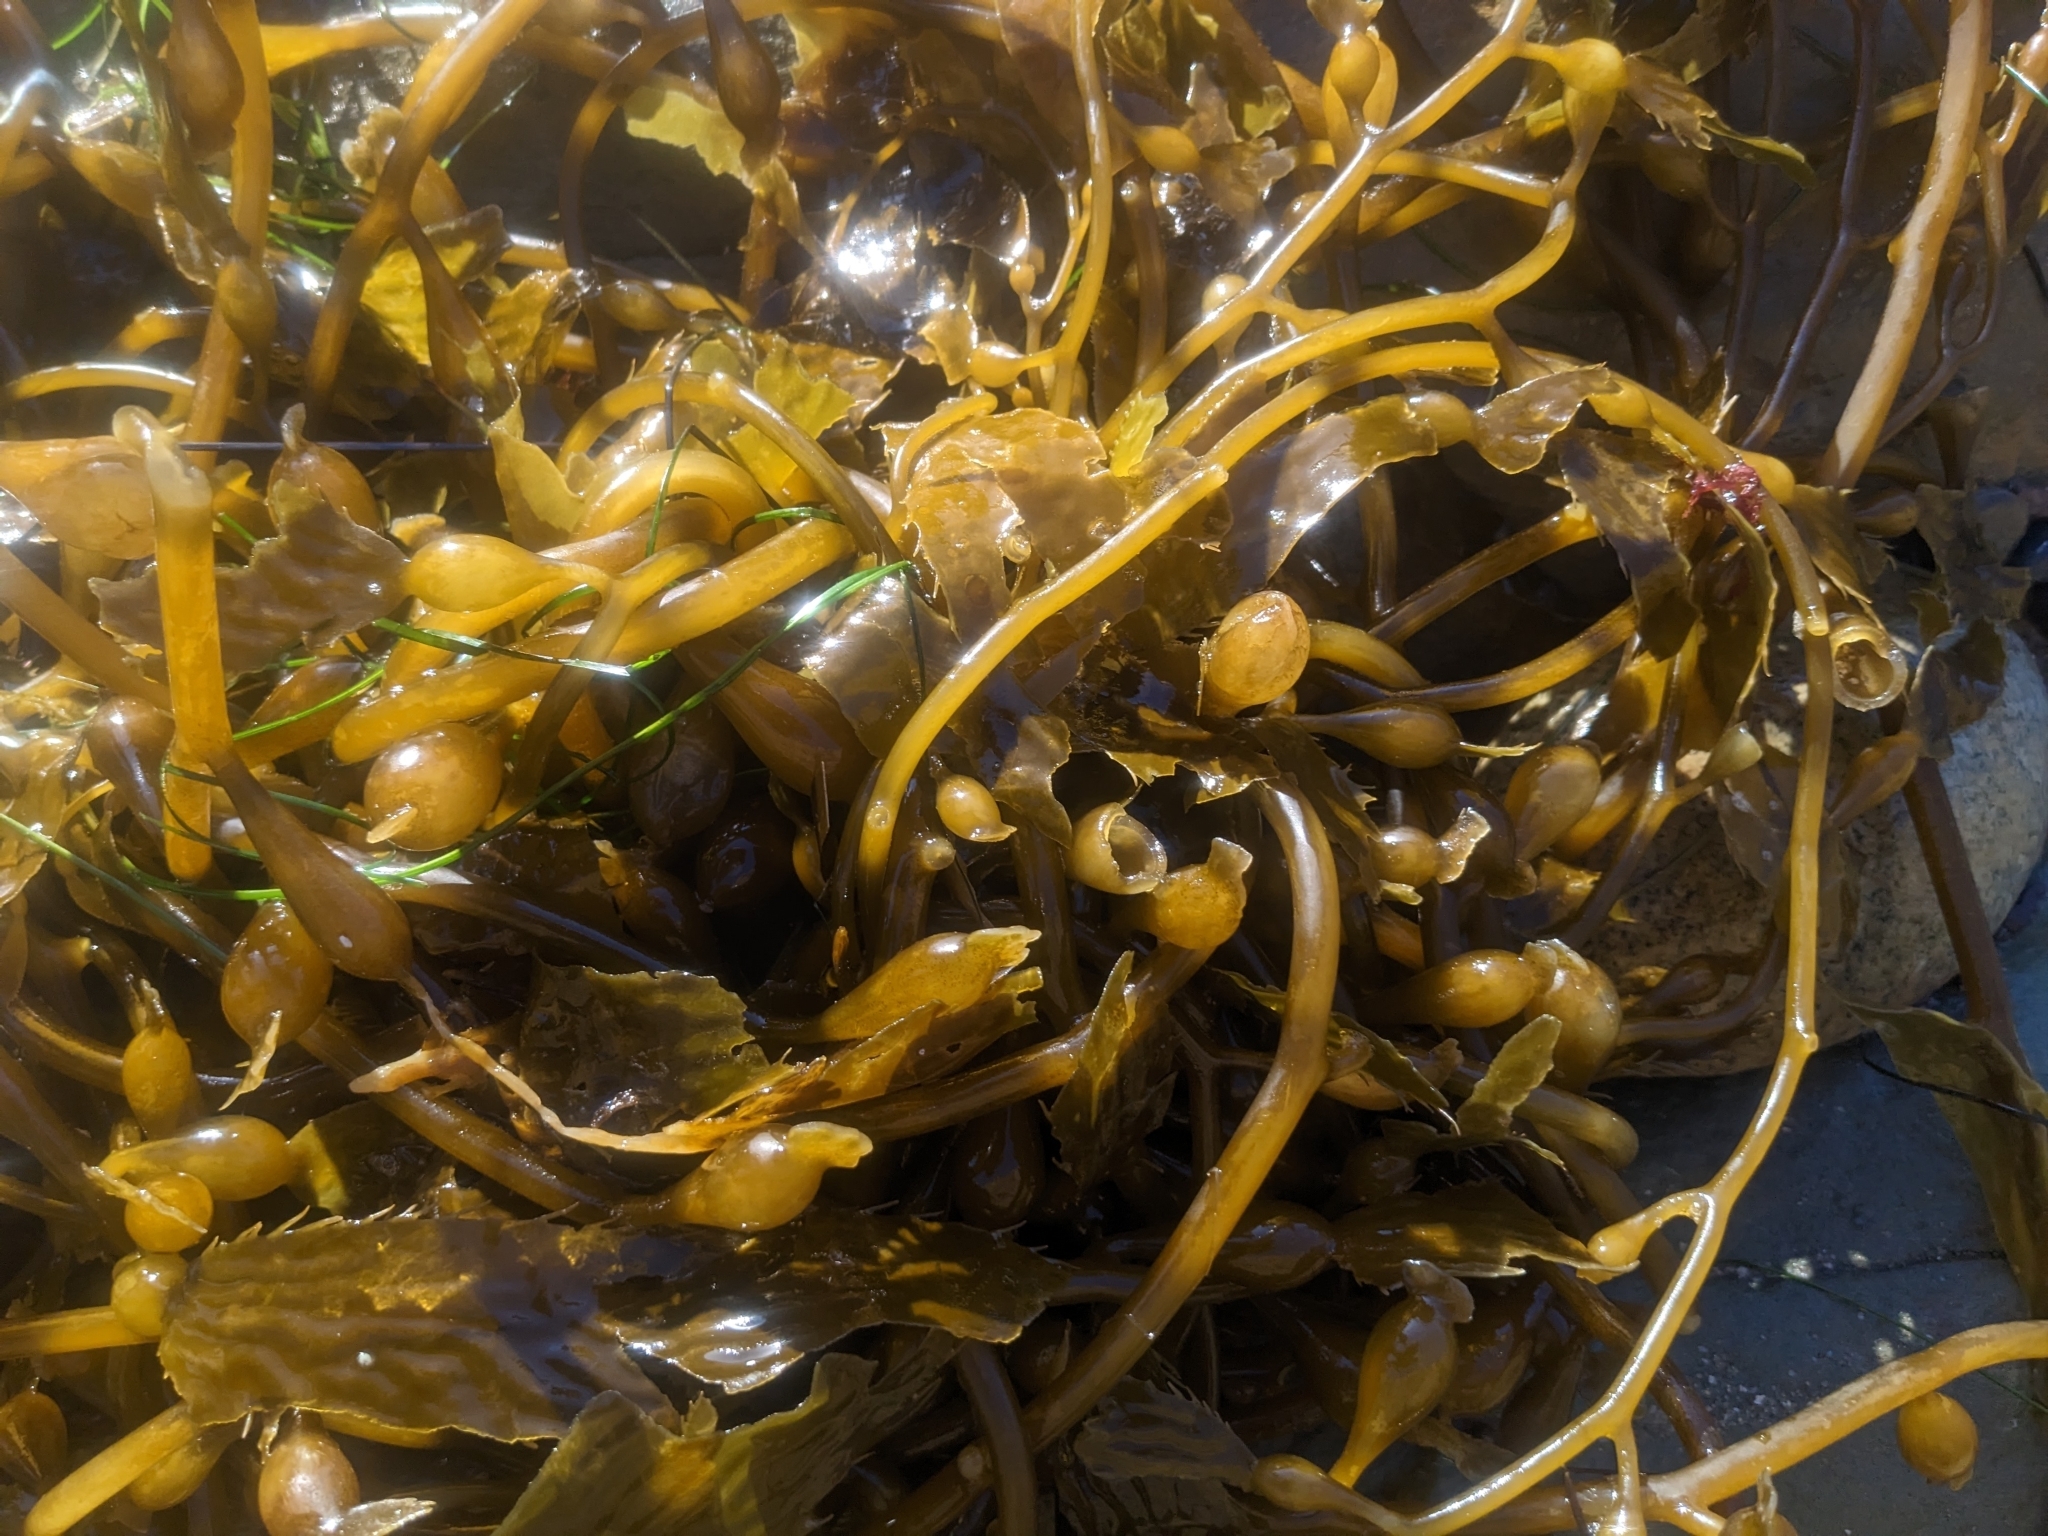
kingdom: Chromista
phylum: Ochrophyta
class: Phaeophyceae
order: Laminariales
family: Laminariaceae
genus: Macrocystis
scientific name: Macrocystis pyrifera
